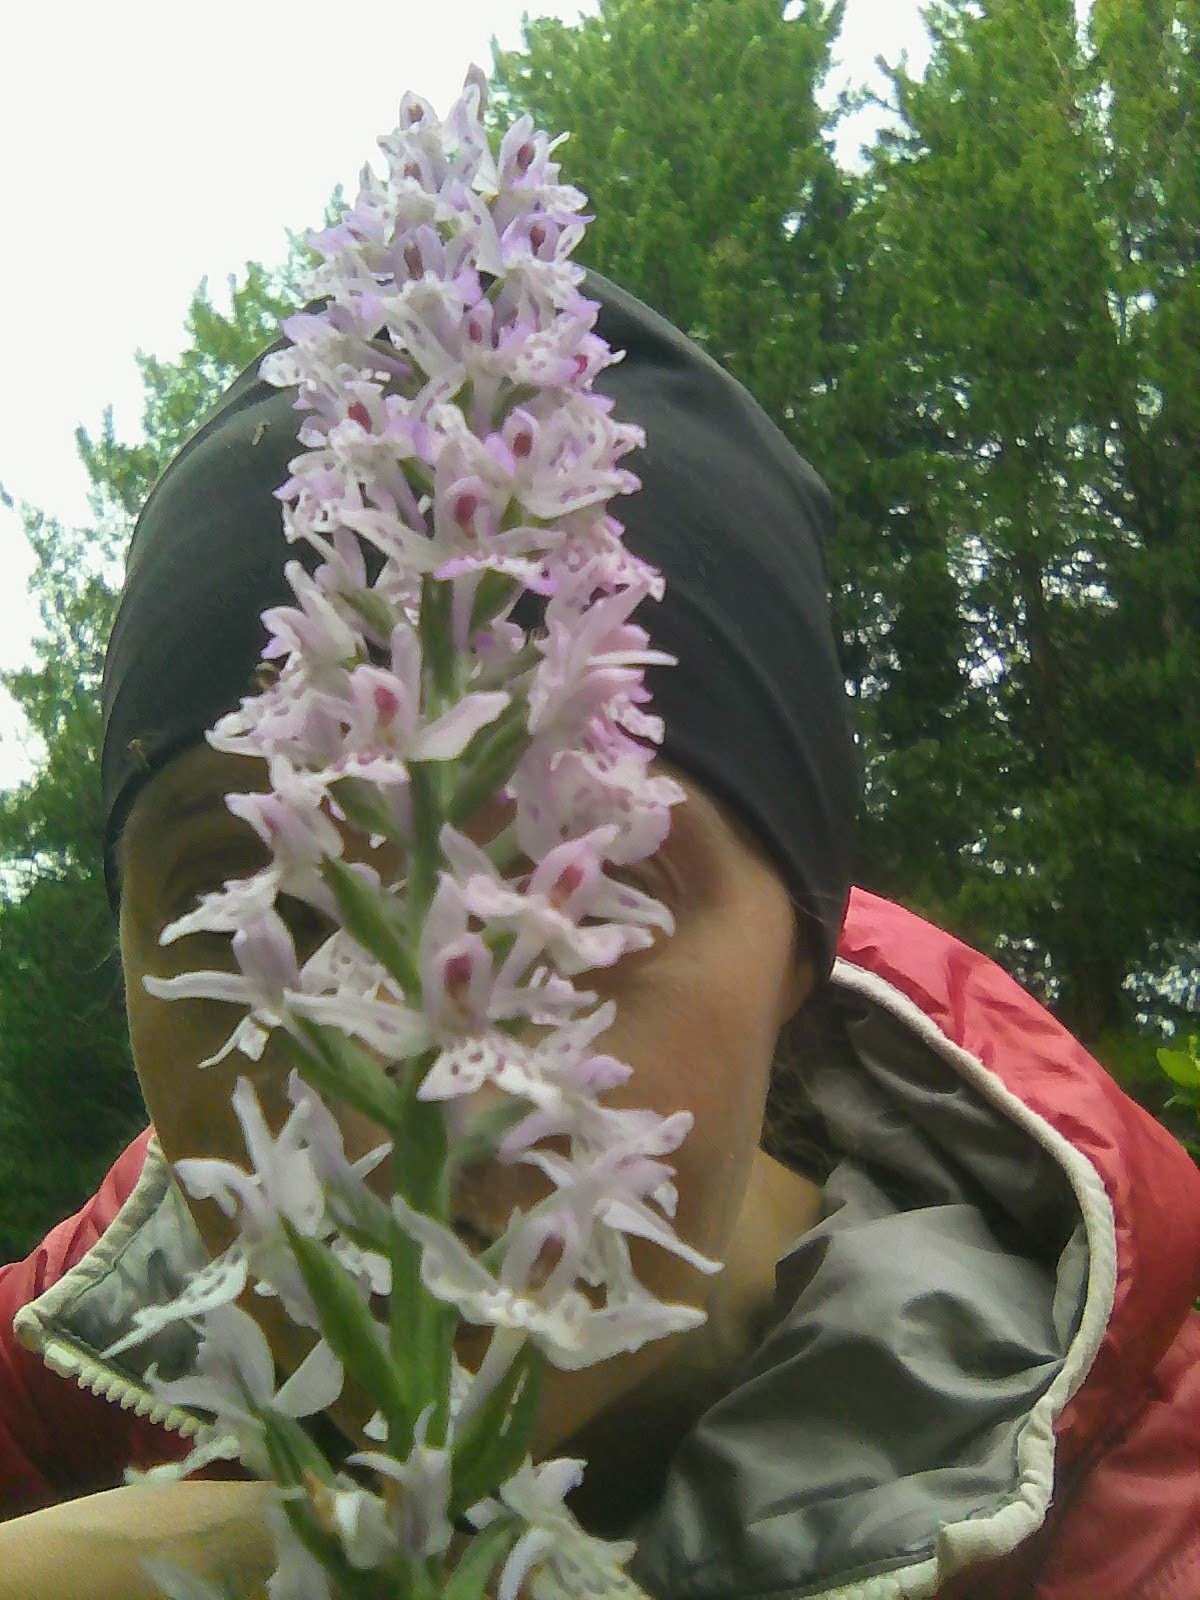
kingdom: Plantae
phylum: Tracheophyta
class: Liliopsida
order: Asparagales
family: Orchidaceae
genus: Dactylorhiza
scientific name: Dactylorhiza maculata
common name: Heath spotted-orchid
